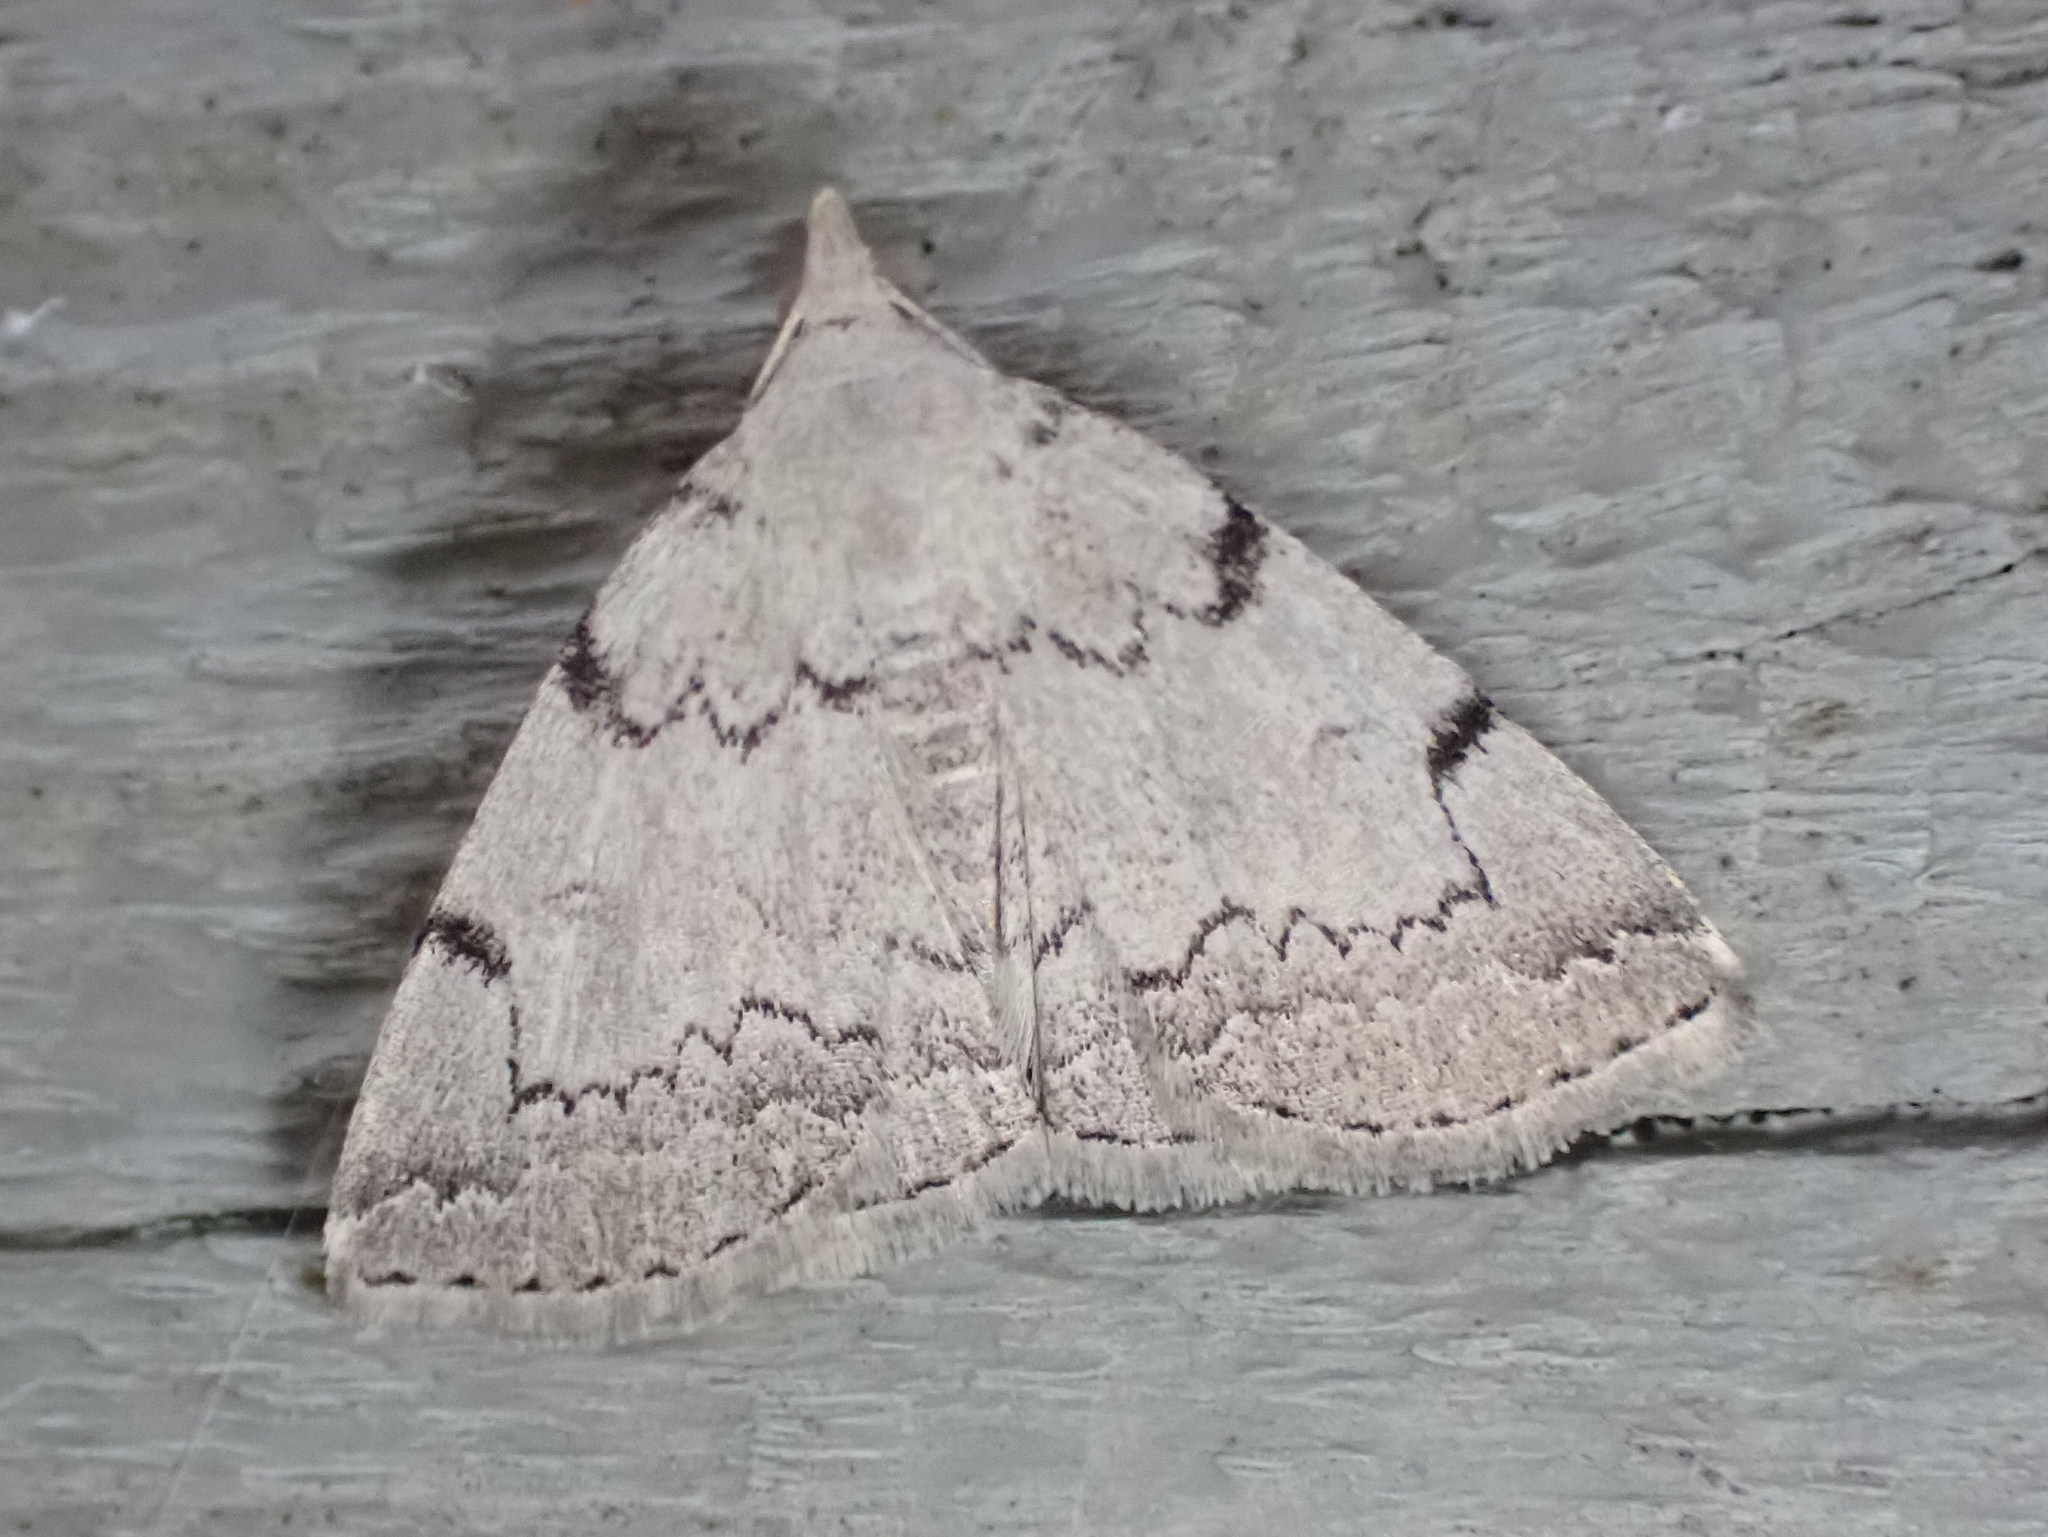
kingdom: Animalia
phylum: Arthropoda
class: Insecta
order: Lepidoptera
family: Erebidae
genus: Zanclognatha
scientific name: Zanclognatha theralis
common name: Flagged fan-foot
